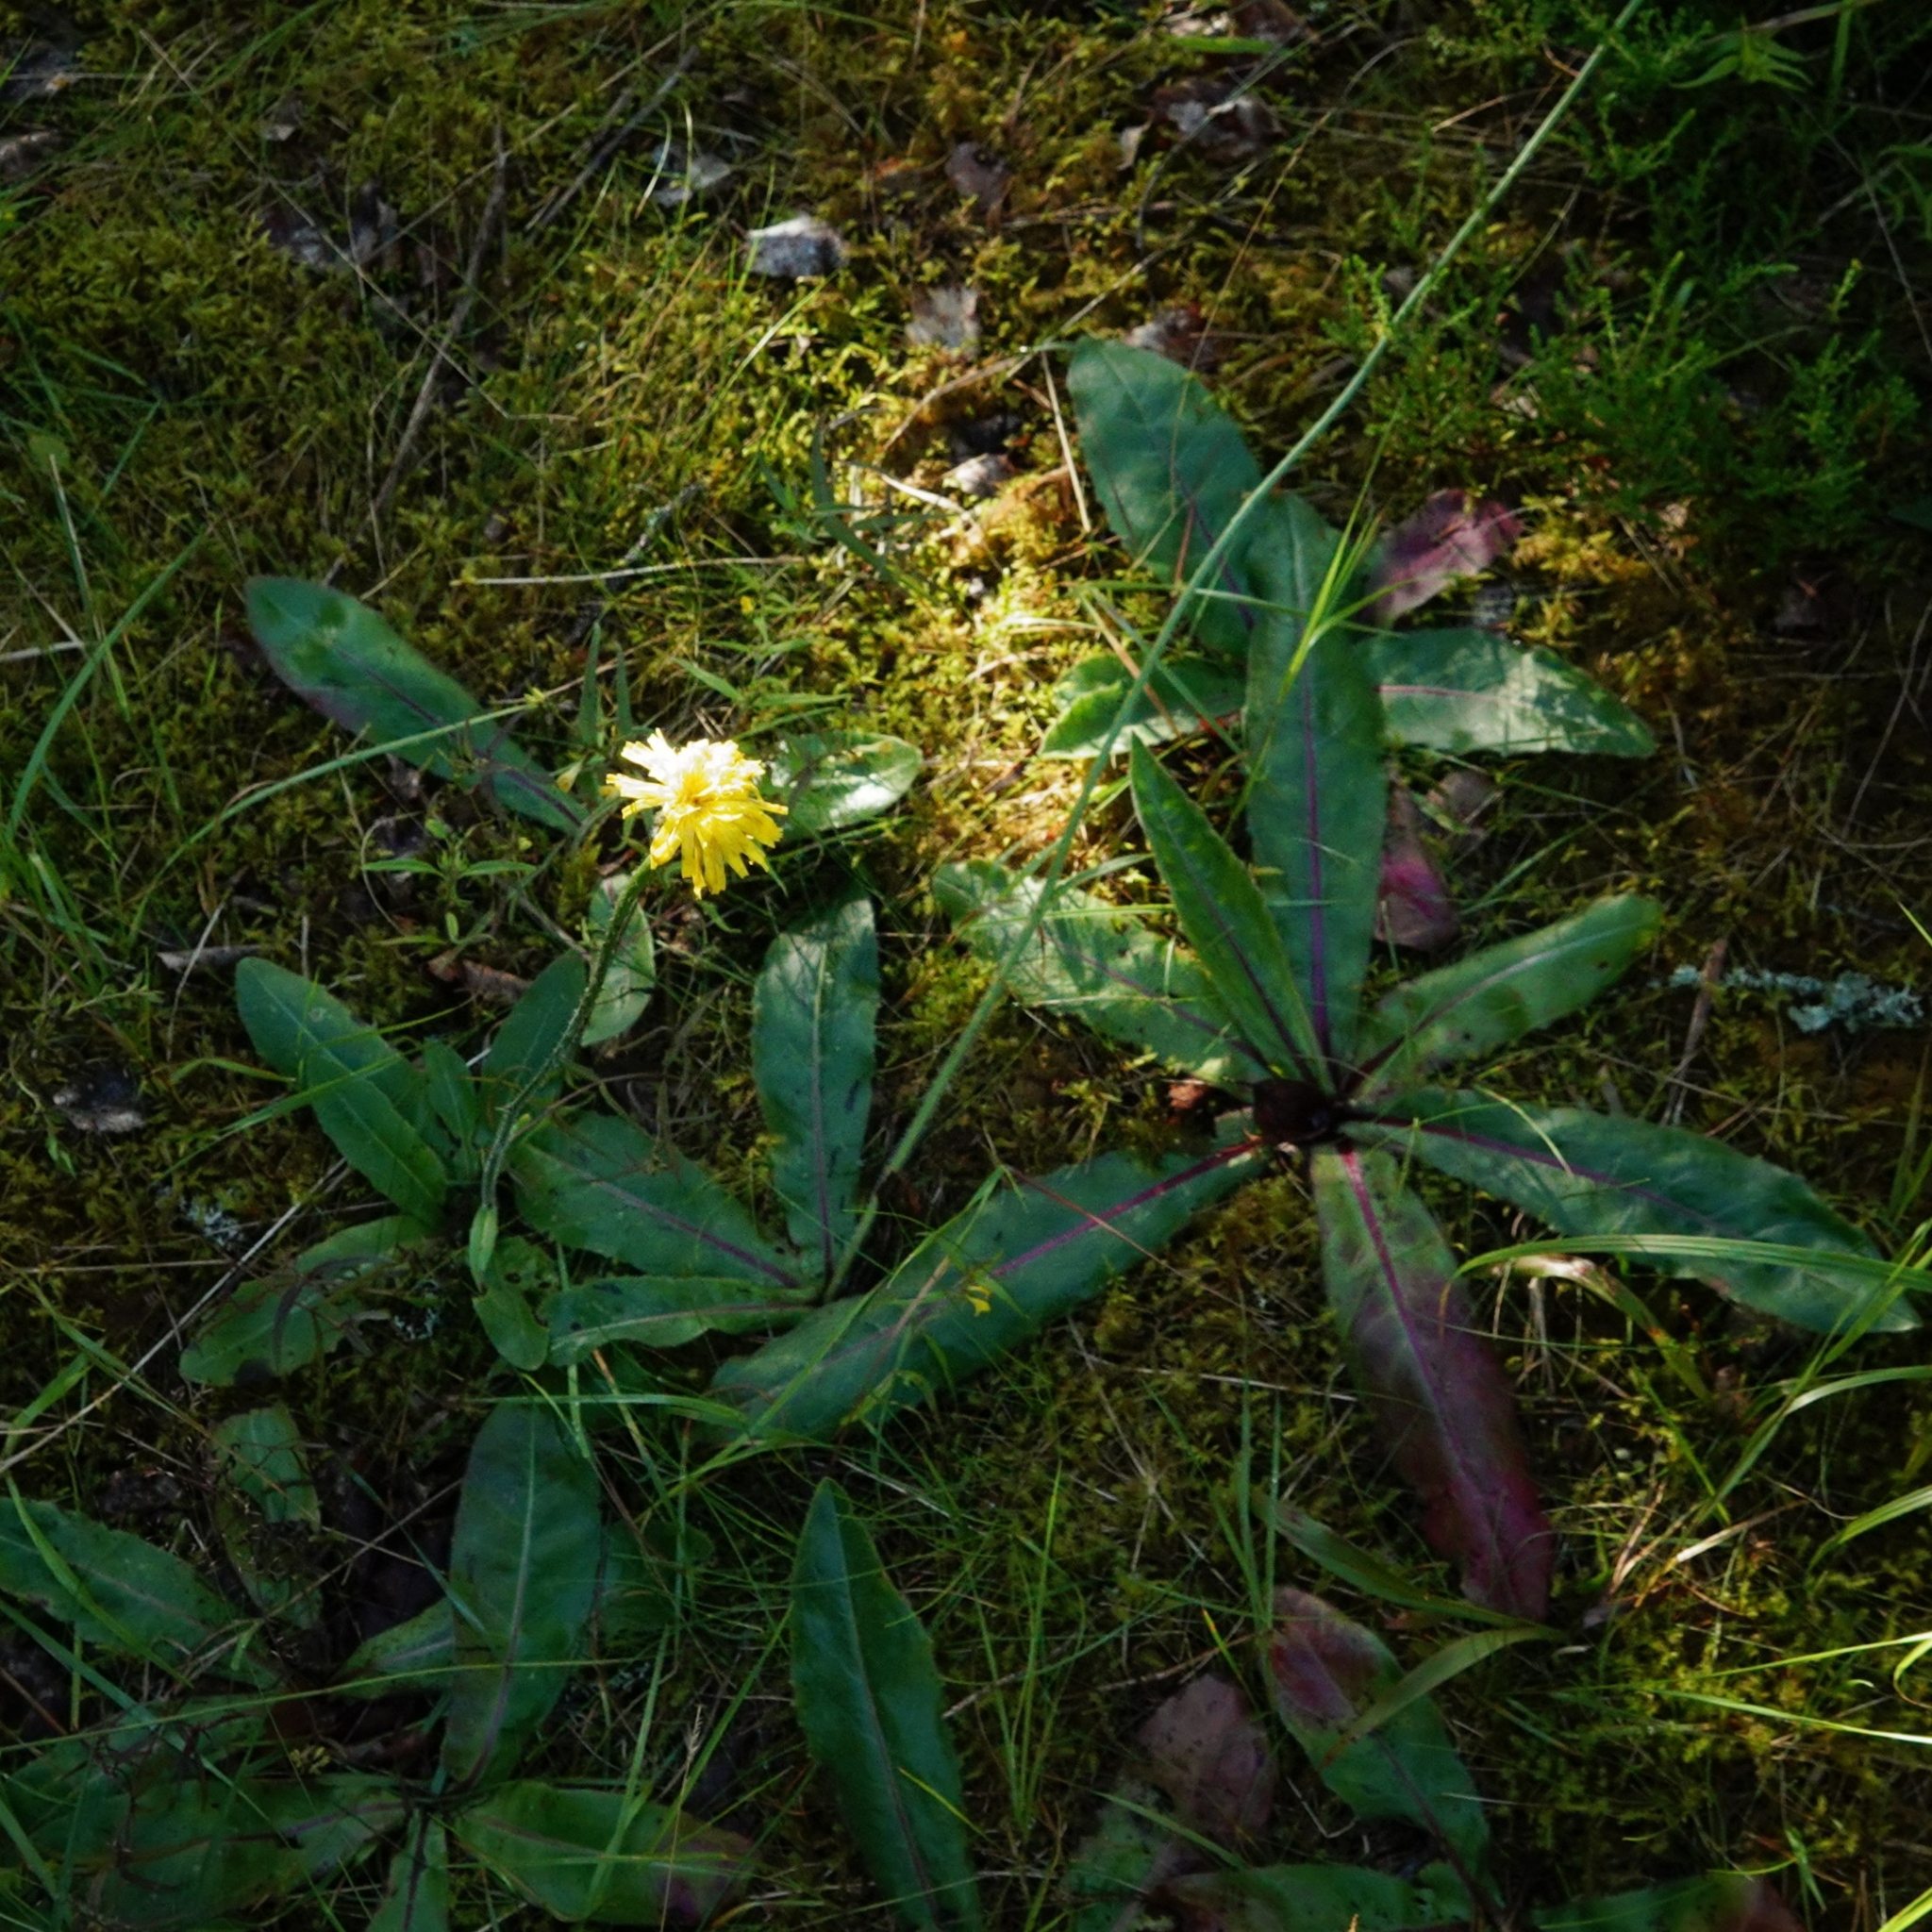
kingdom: Plantae
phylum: Tracheophyta
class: Magnoliopsida
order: Asterales
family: Asteraceae
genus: Trommsdorffia
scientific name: Trommsdorffia maculata
